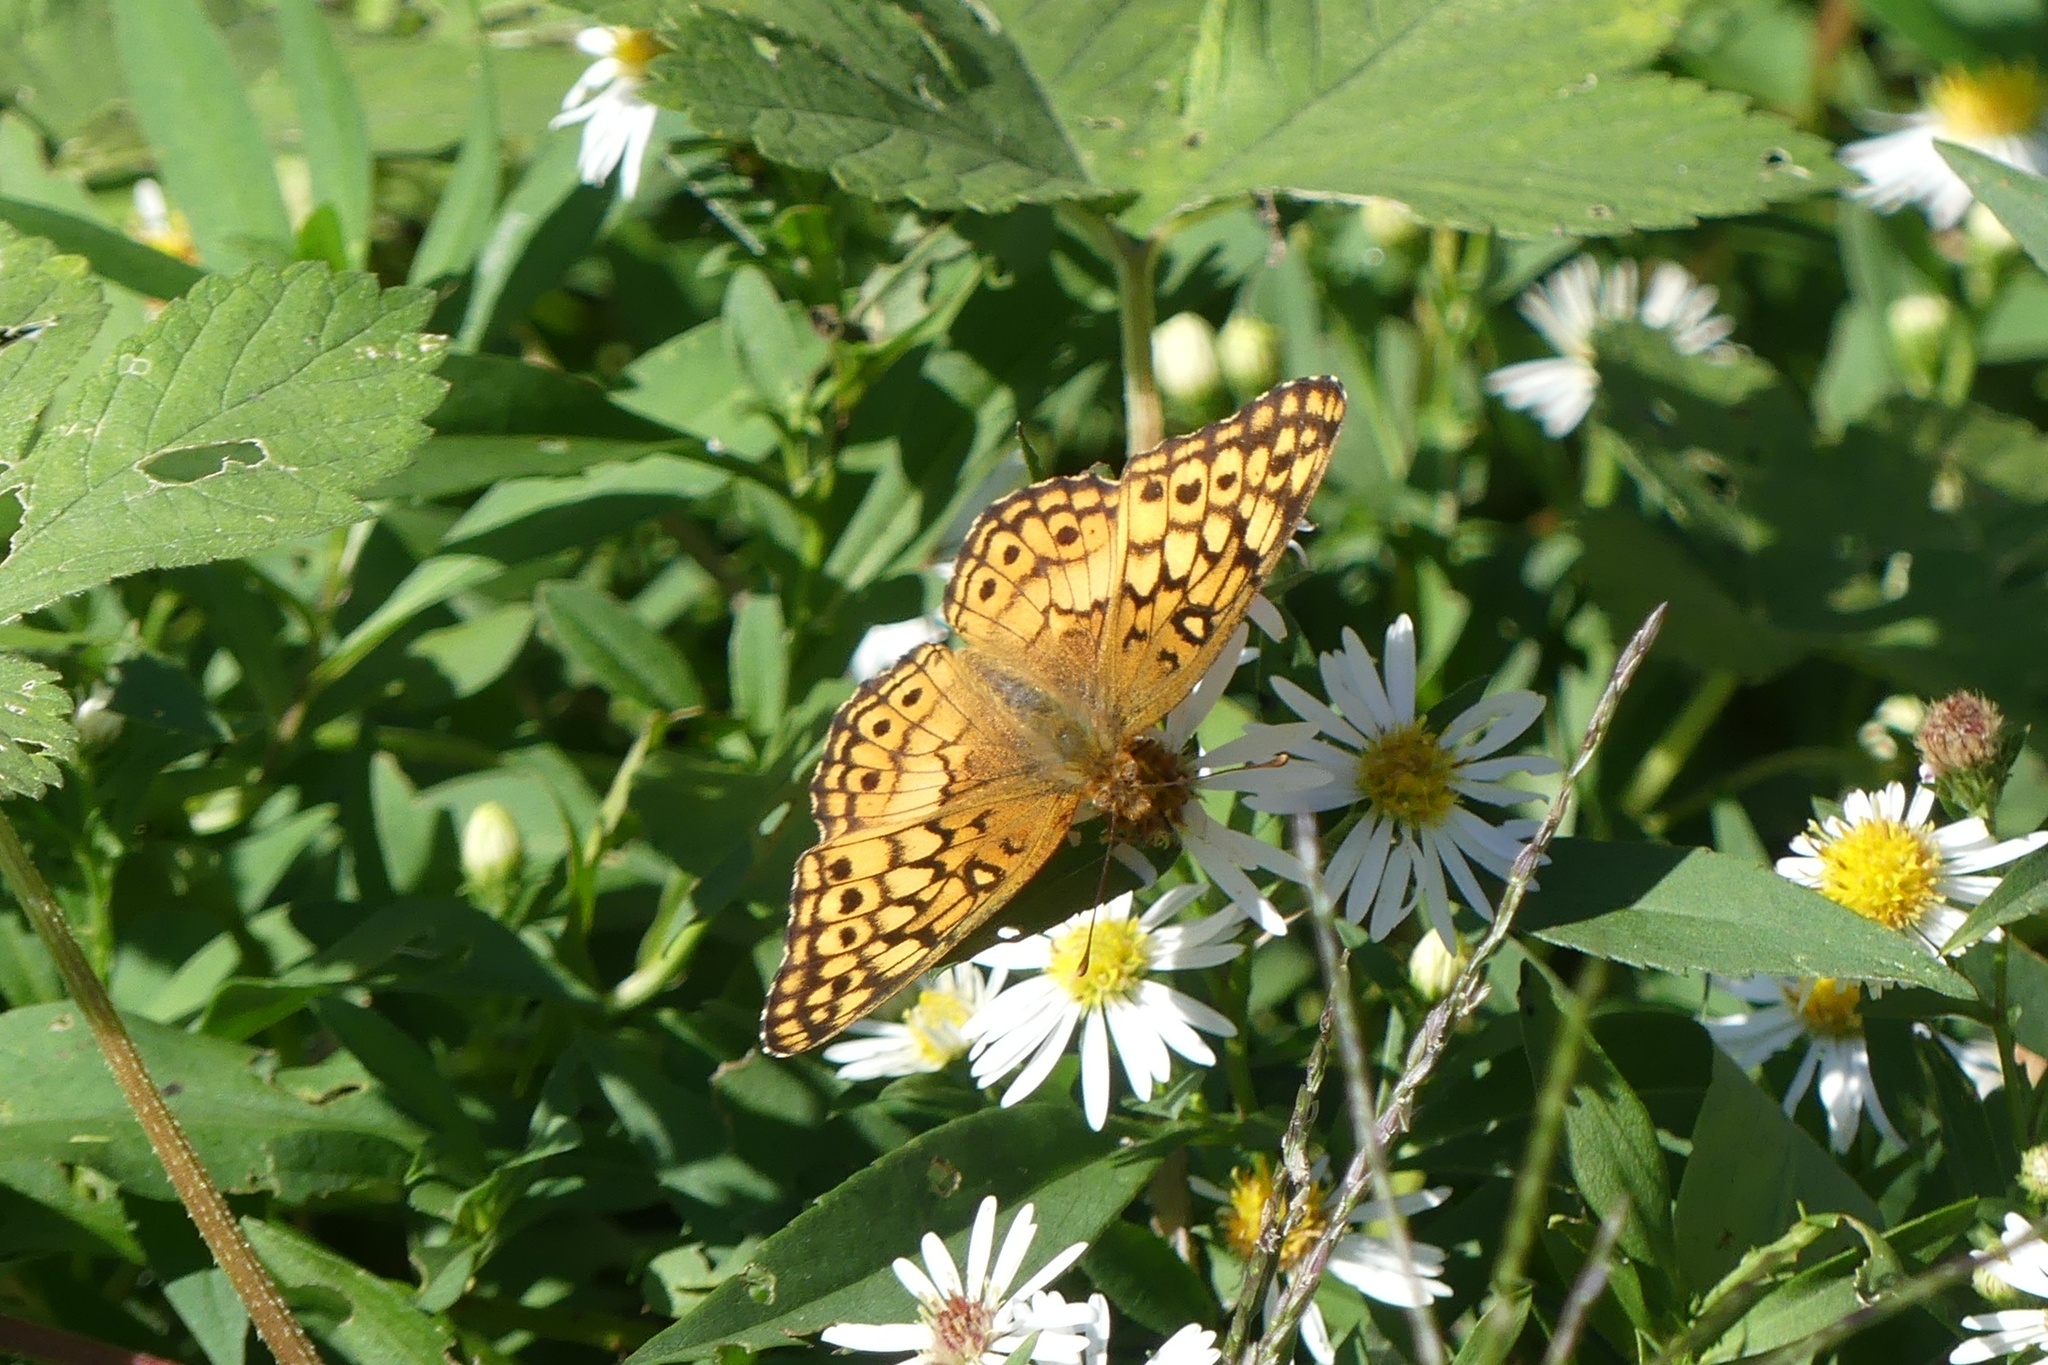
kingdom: Animalia
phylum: Arthropoda
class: Insecta
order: Lepidoptera
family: Nymphalidae
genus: Euptoieta
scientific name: Euptoieta claudia
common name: Variegated fritillary
